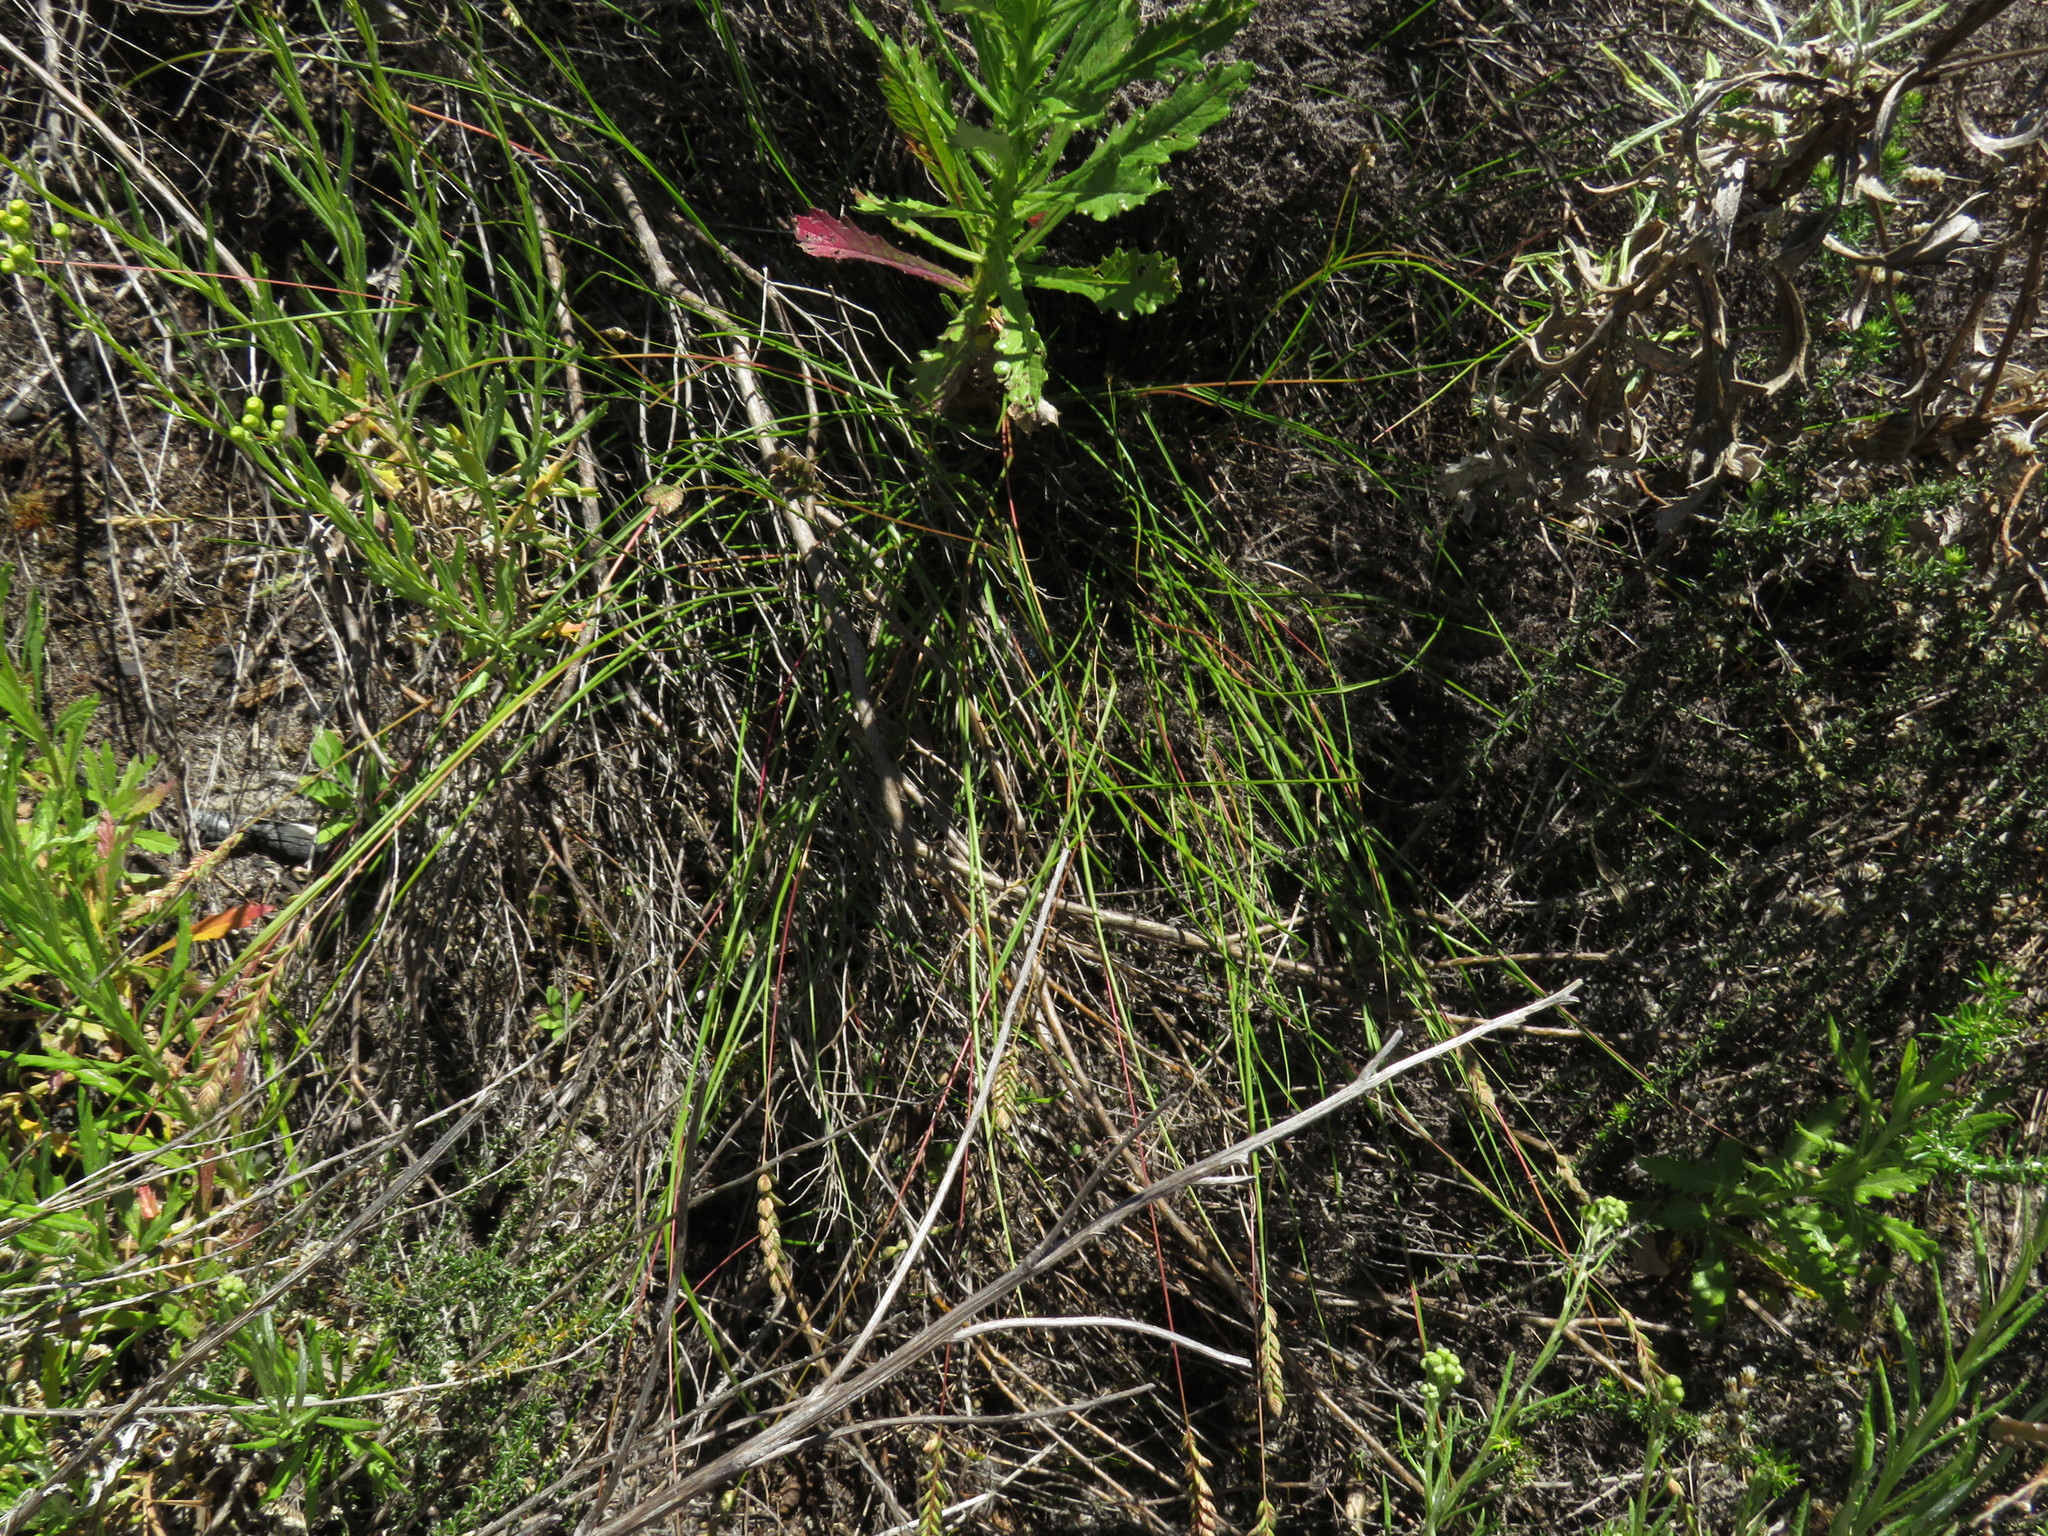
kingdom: Plantae
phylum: Tracheophyta
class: Liliopsida
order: Poales
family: Poaceae
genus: Tribolium
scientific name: Tribolium uniolae
